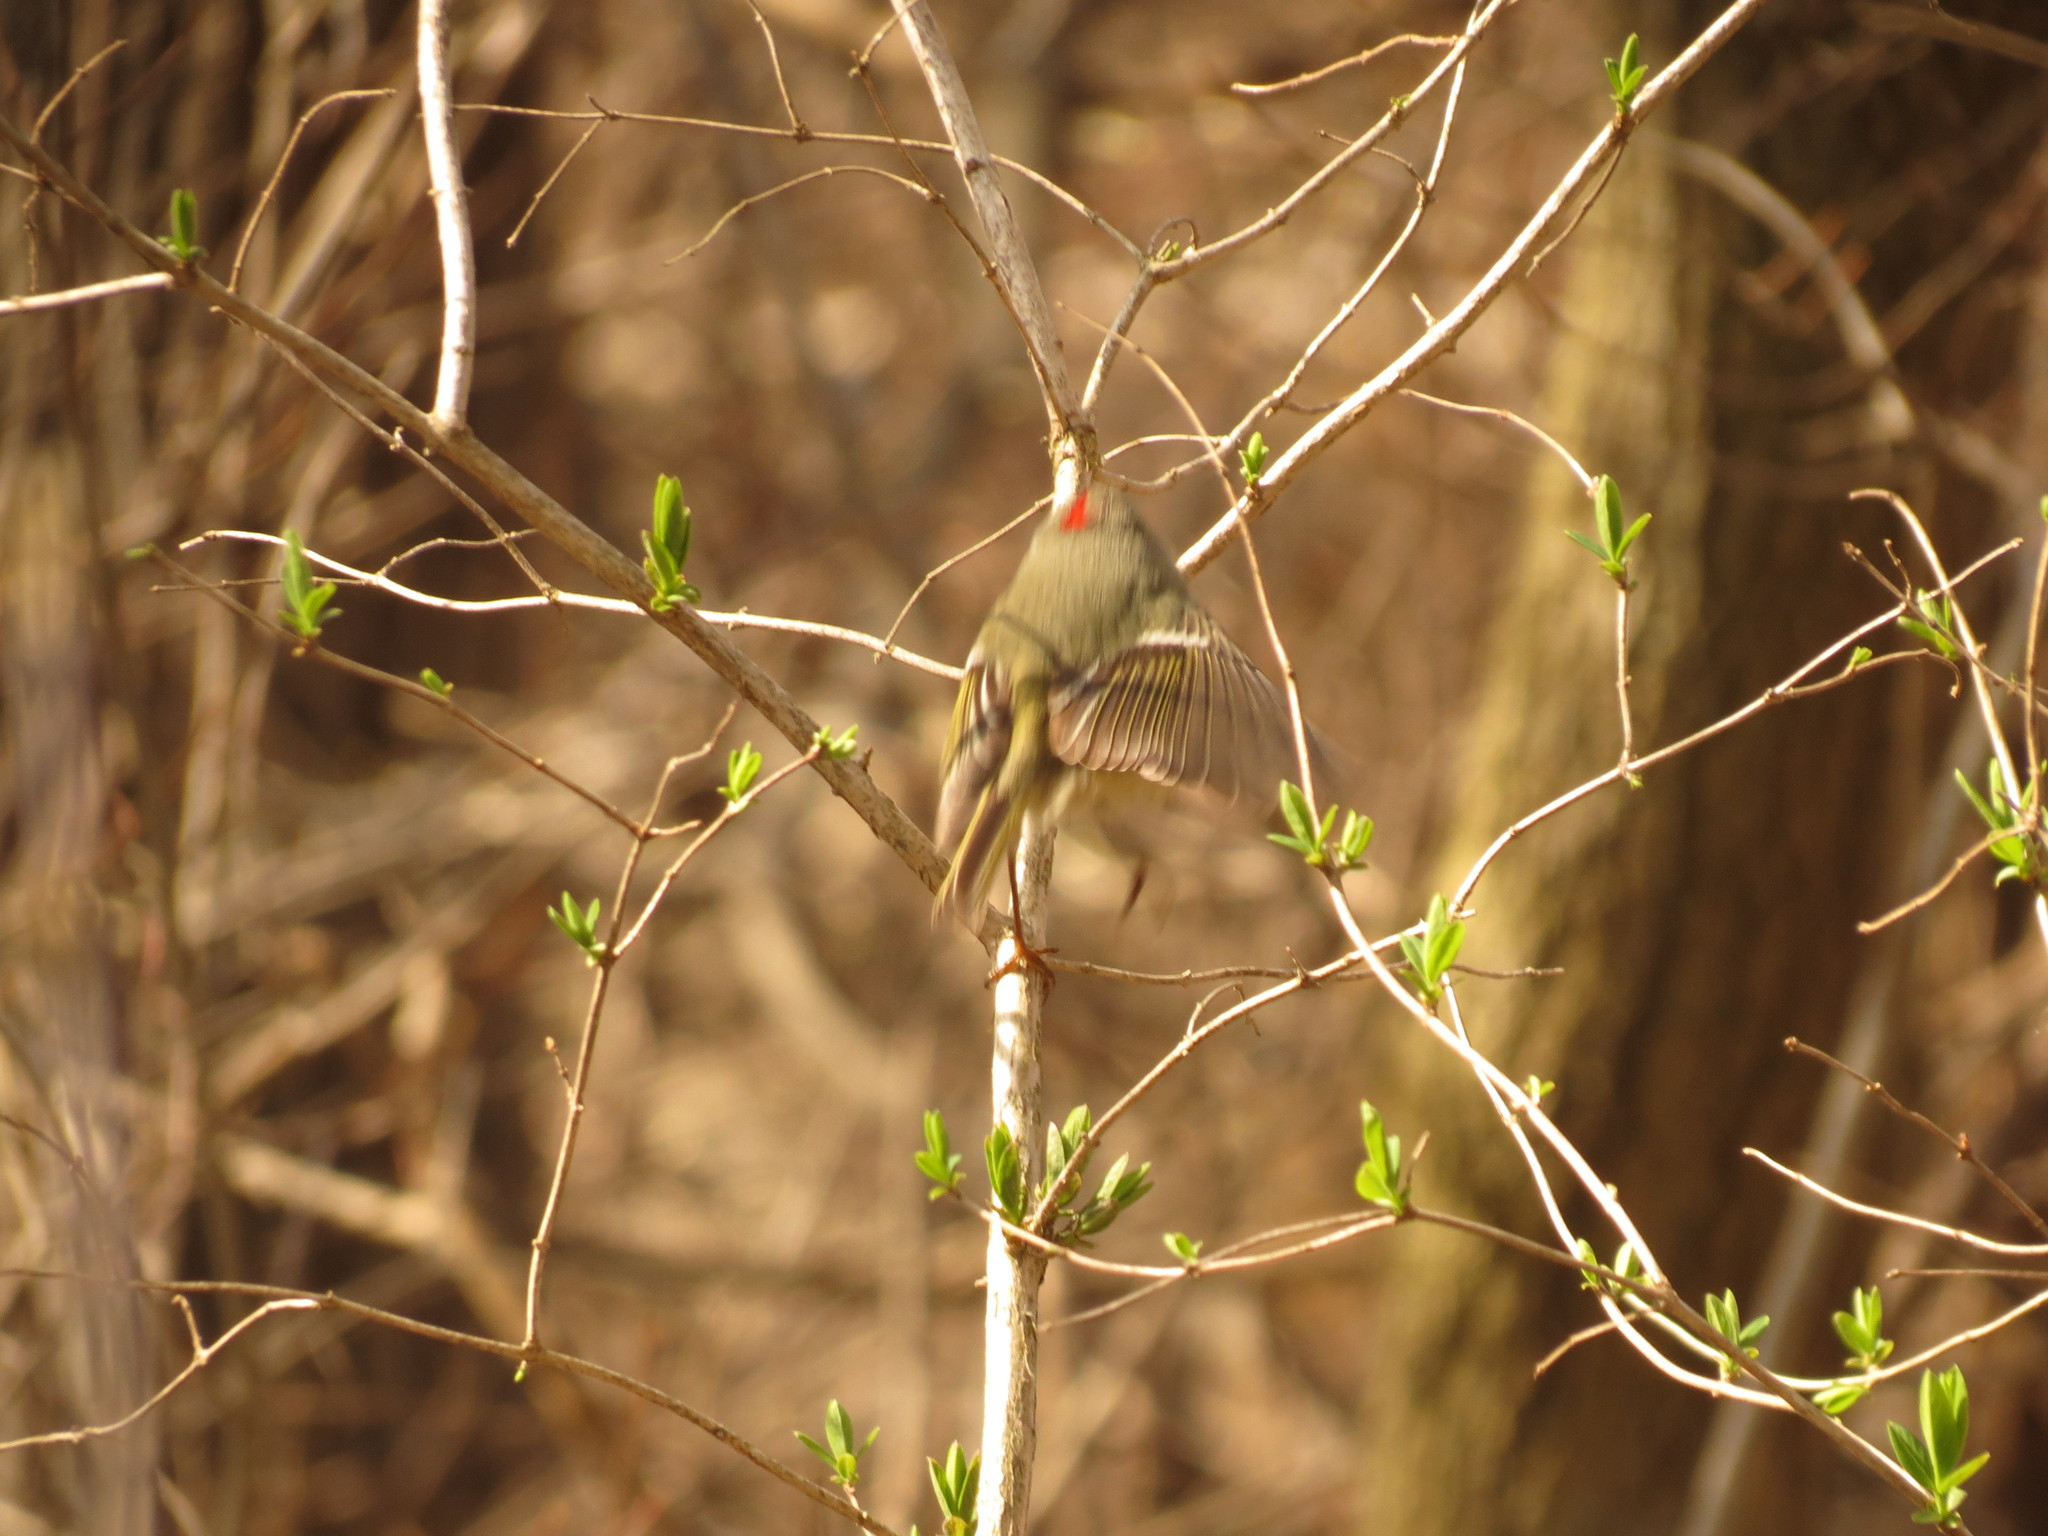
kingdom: Animalia
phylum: Chordata
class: Aves
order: Passeriformes
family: Regulidae
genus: Regulus
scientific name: Regulus calendula
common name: Ruby-crowned kinglet
